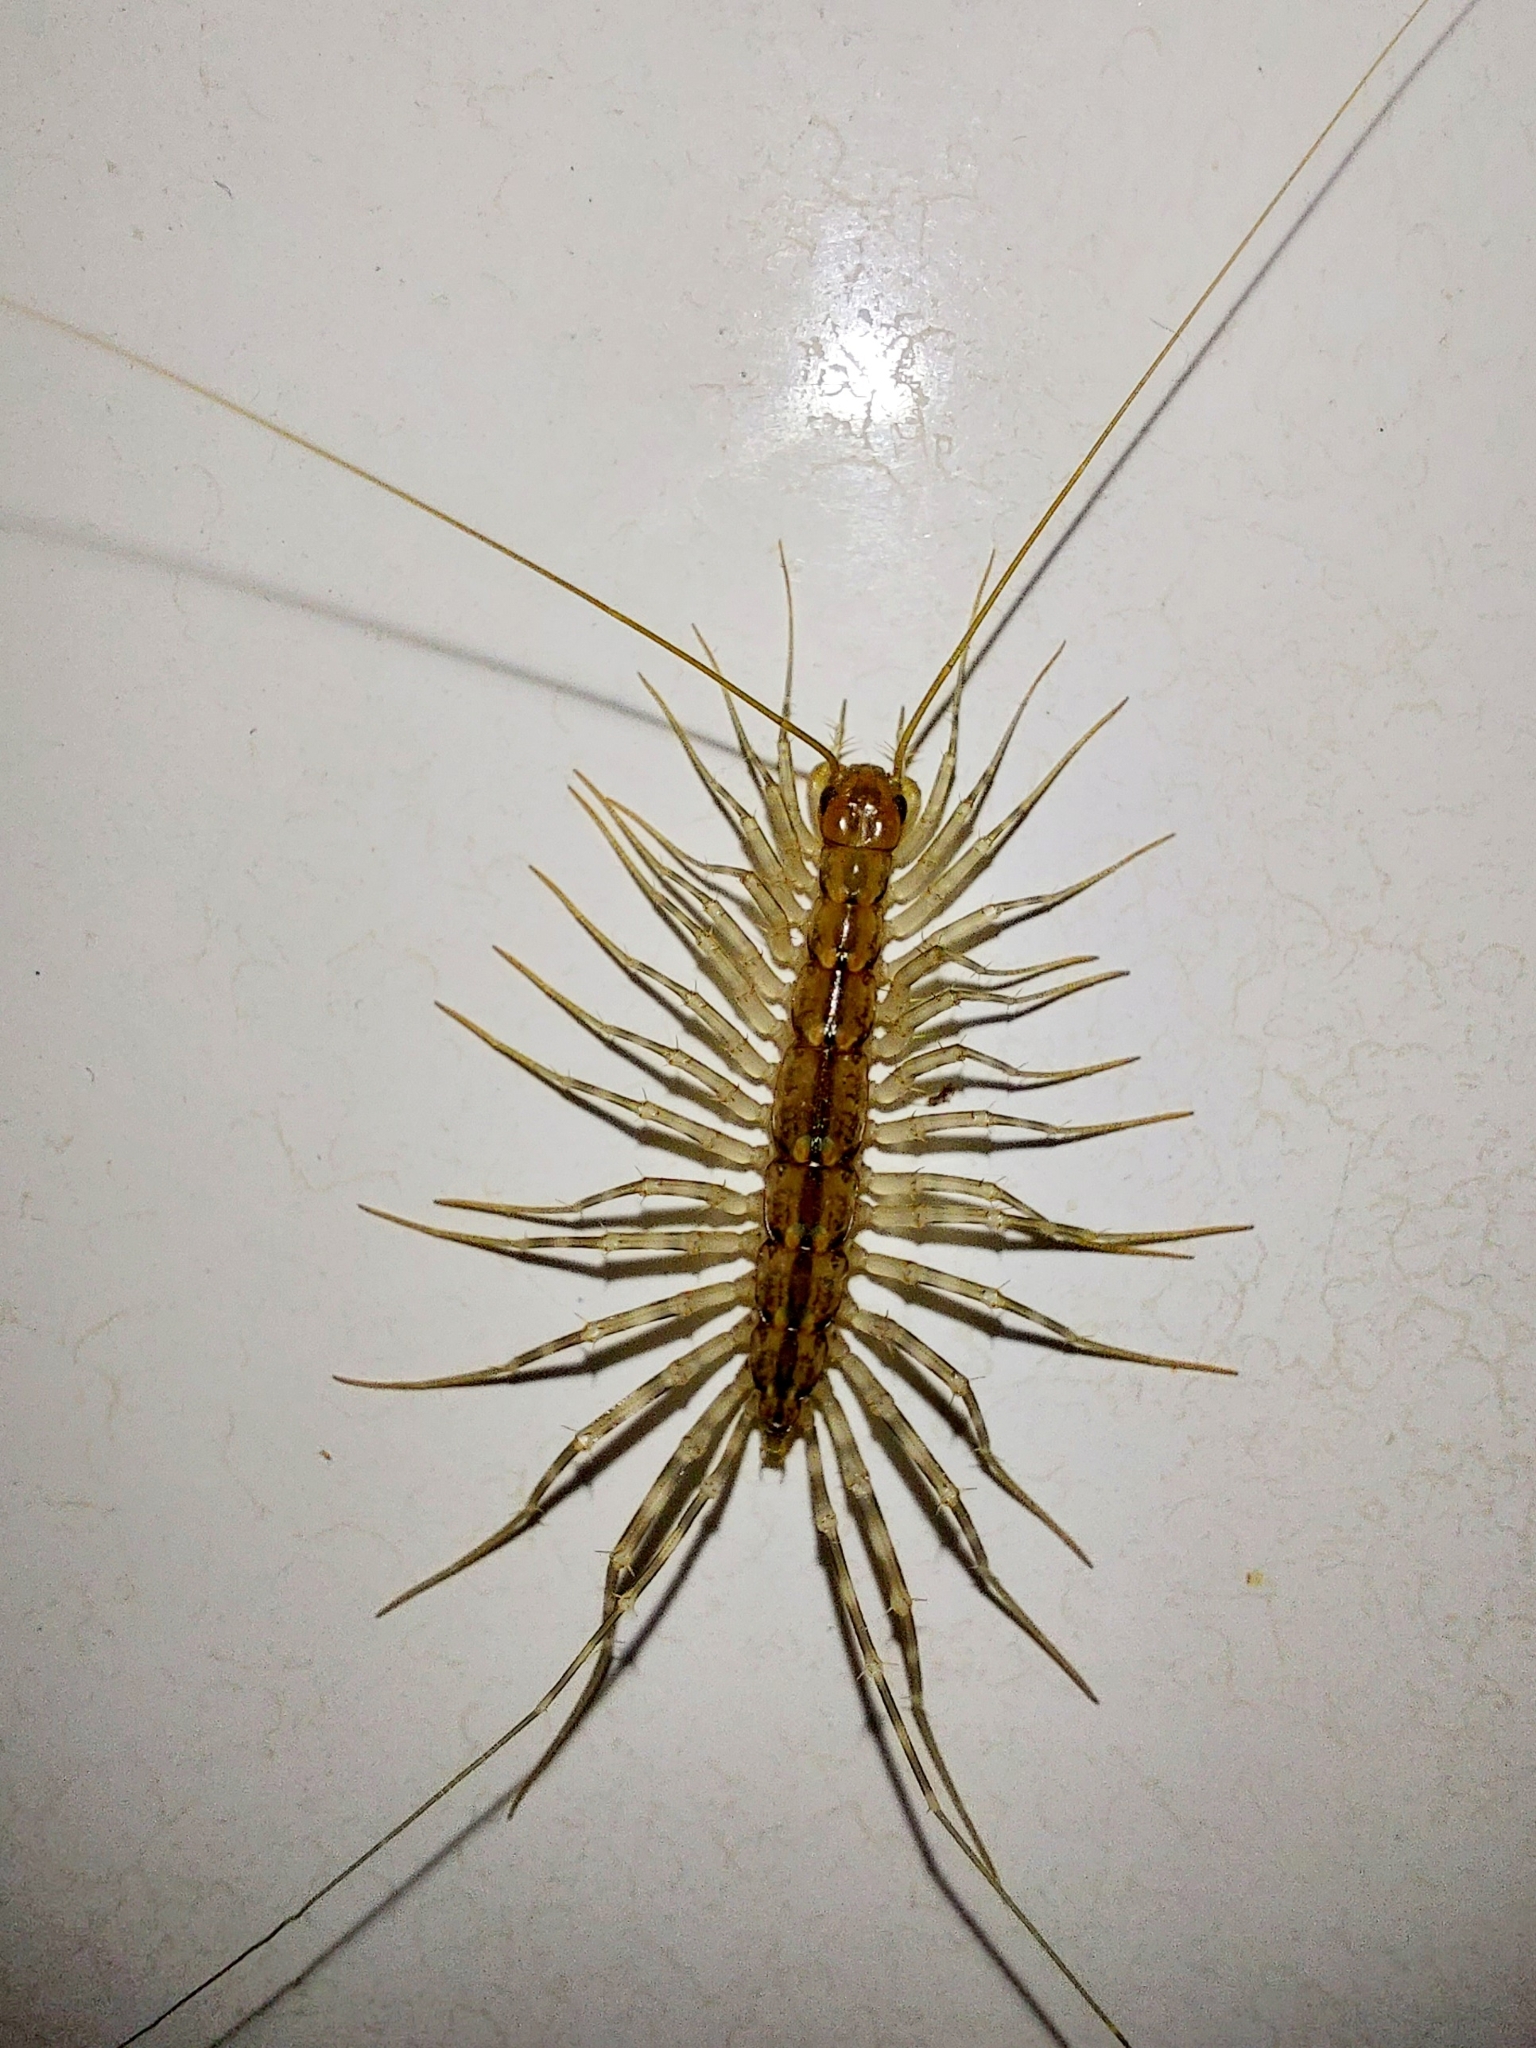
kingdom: Animalia
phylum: Arthropoda
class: Chilopoda
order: Scutigeromorpha
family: Scutigeridae
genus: Scutigera
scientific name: Scutigera coleoptrata
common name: House centipede
